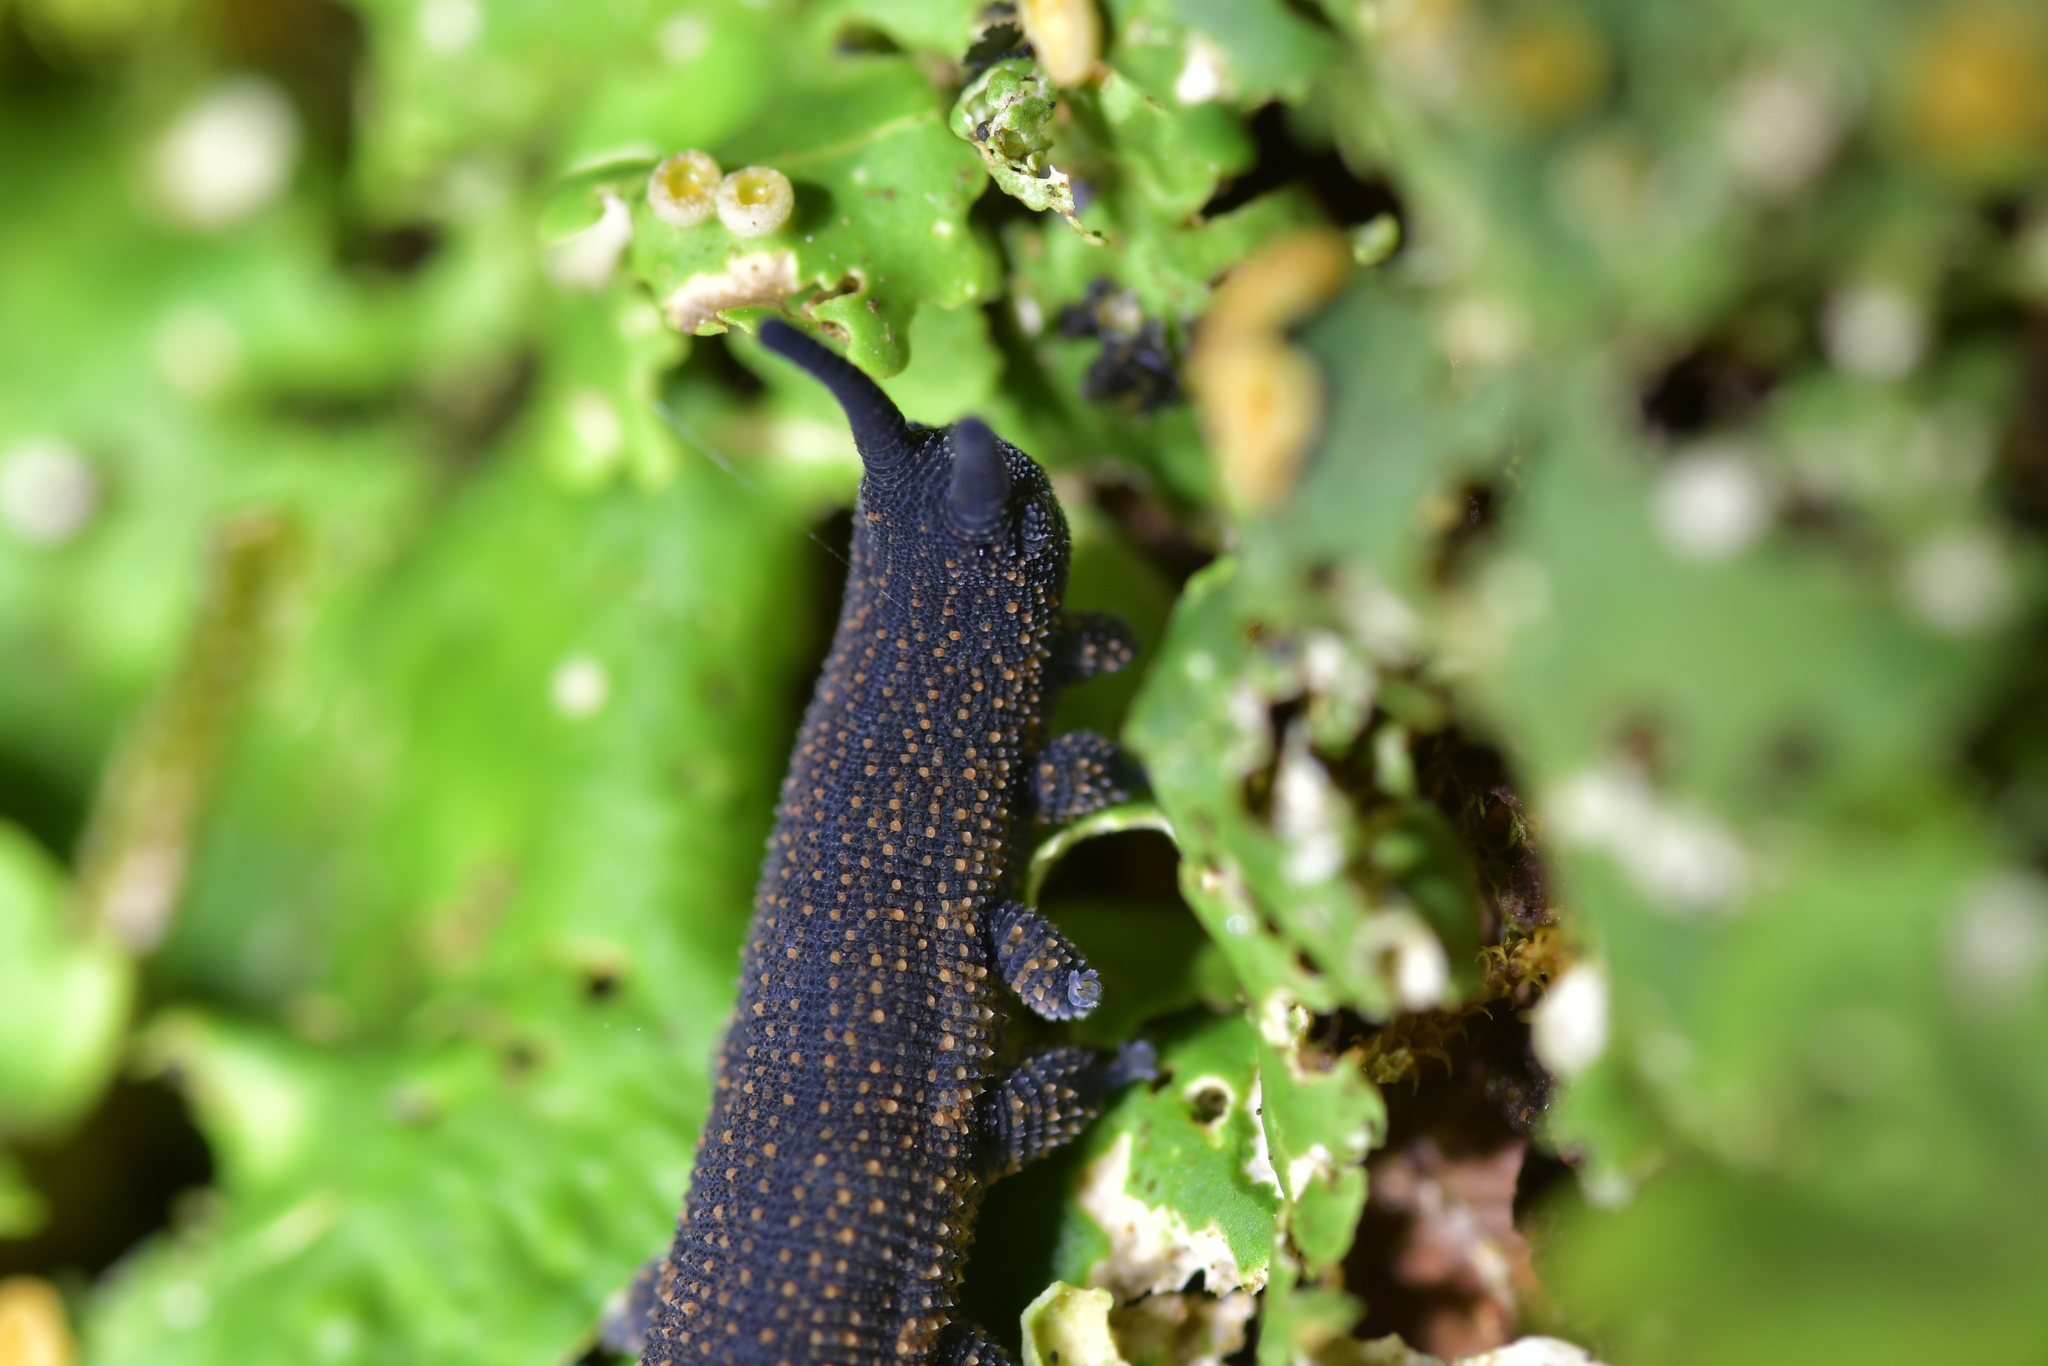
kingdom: Animalia
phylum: Onychophora
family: Peripatopsidae
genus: Peripatoides
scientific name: Peripatoides novaezealandiae
